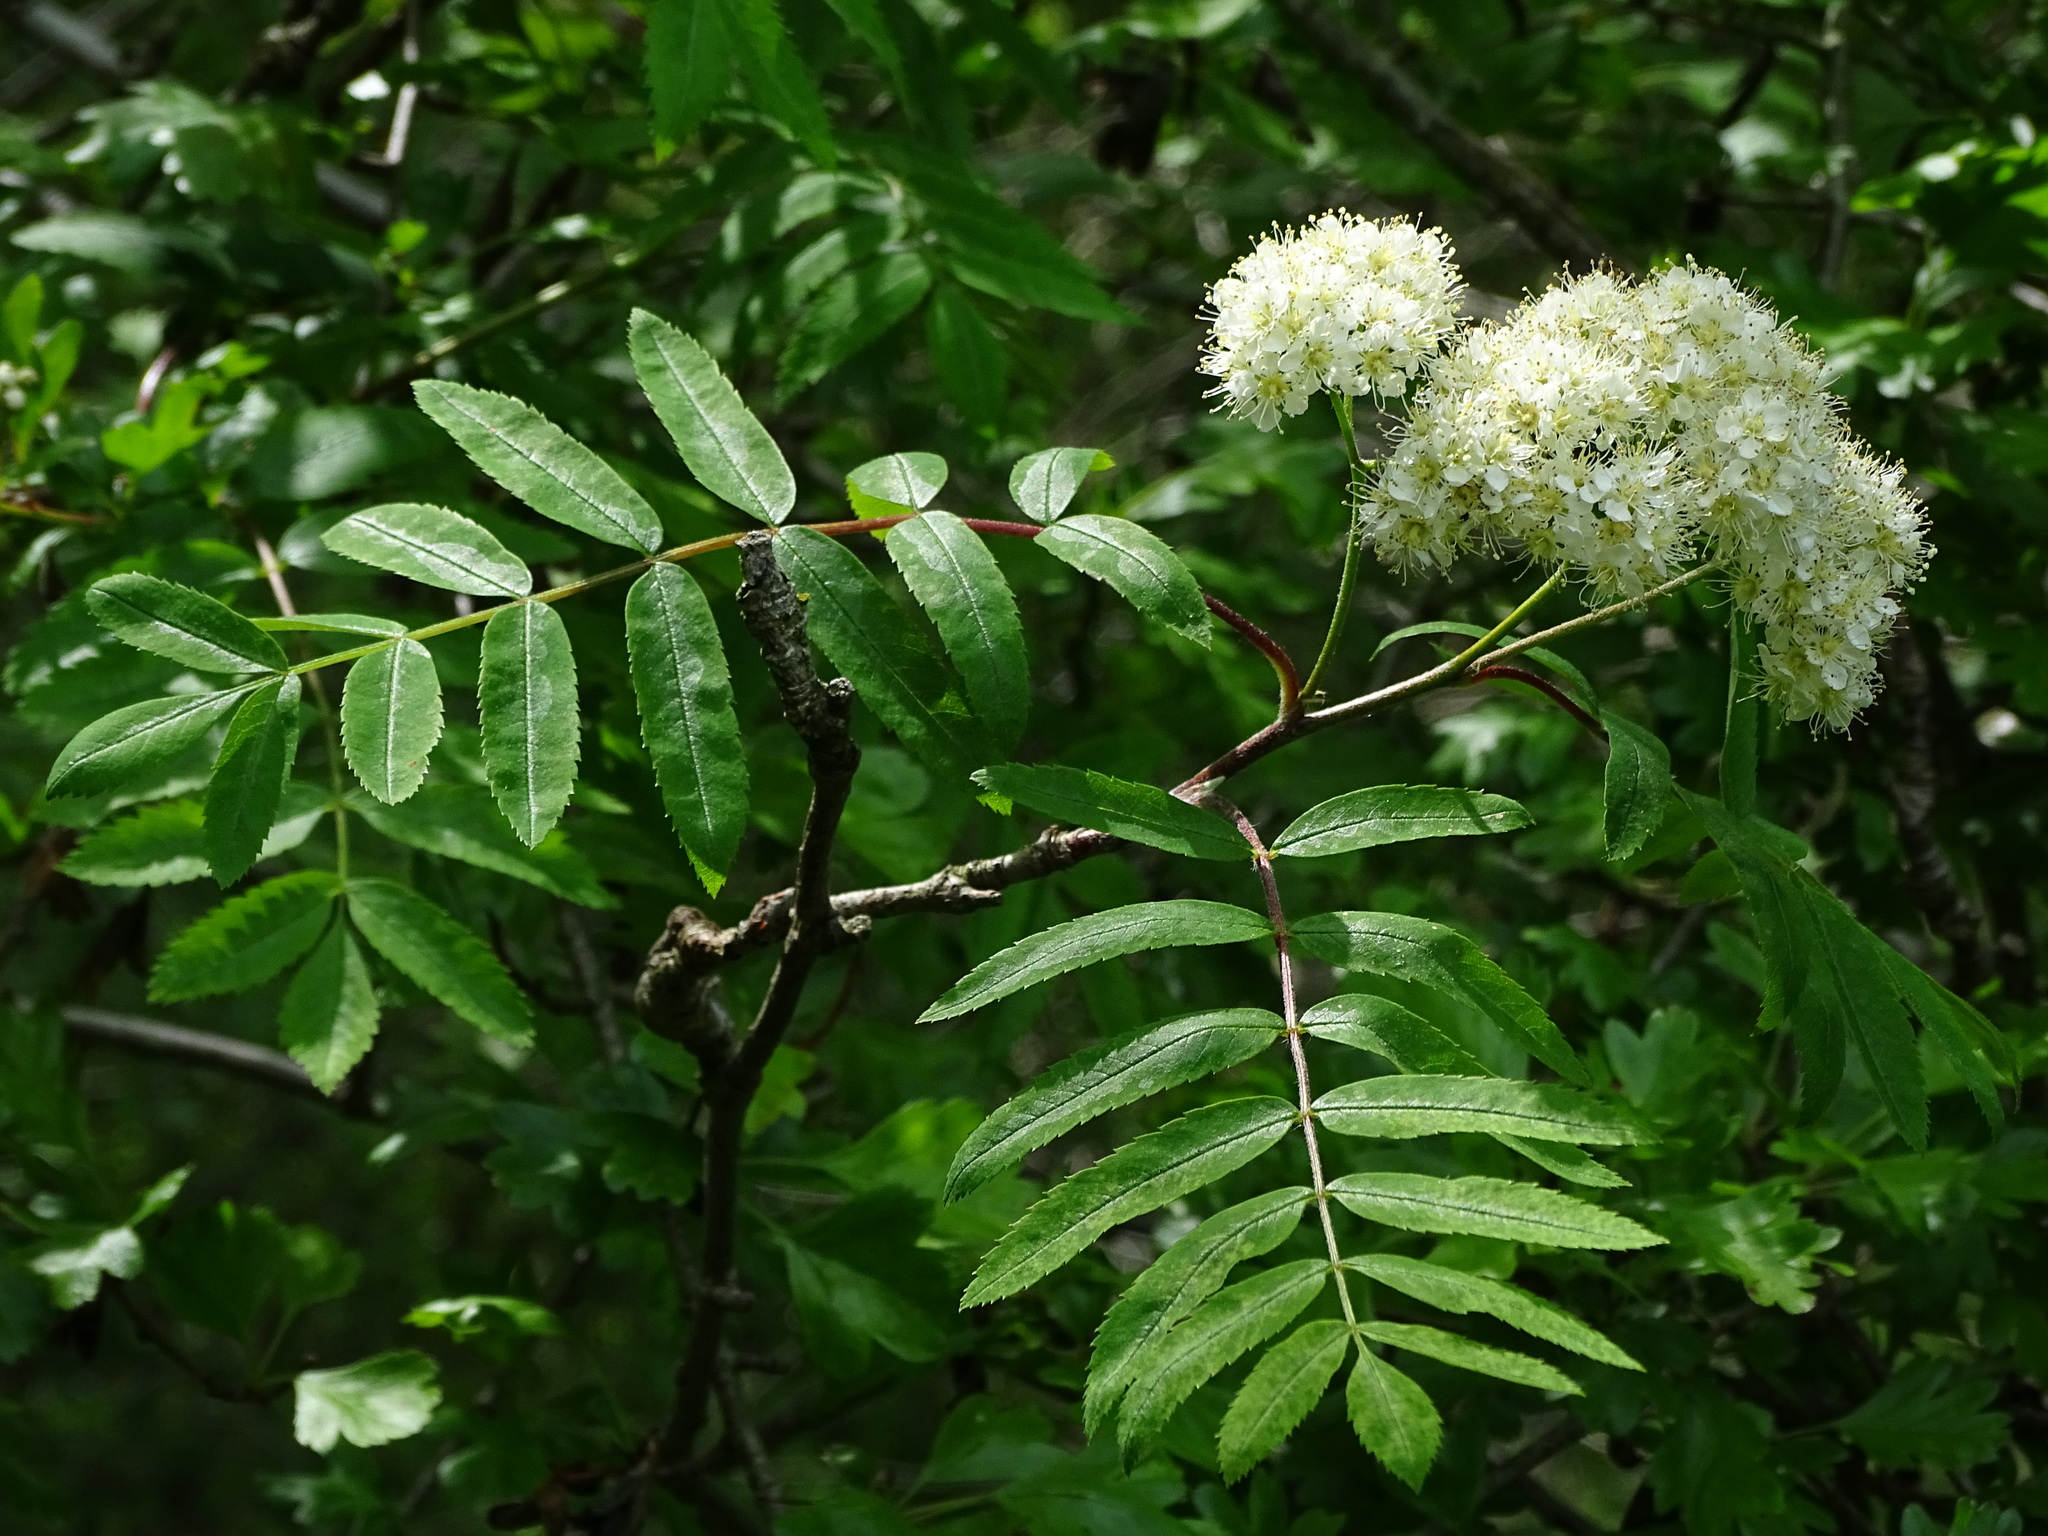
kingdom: Plantae
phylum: Tracheophyta
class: Magnoliopsida
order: Rosales
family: Rosaceae
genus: Sorbus
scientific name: Sorbus aucuparia
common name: Rowan
